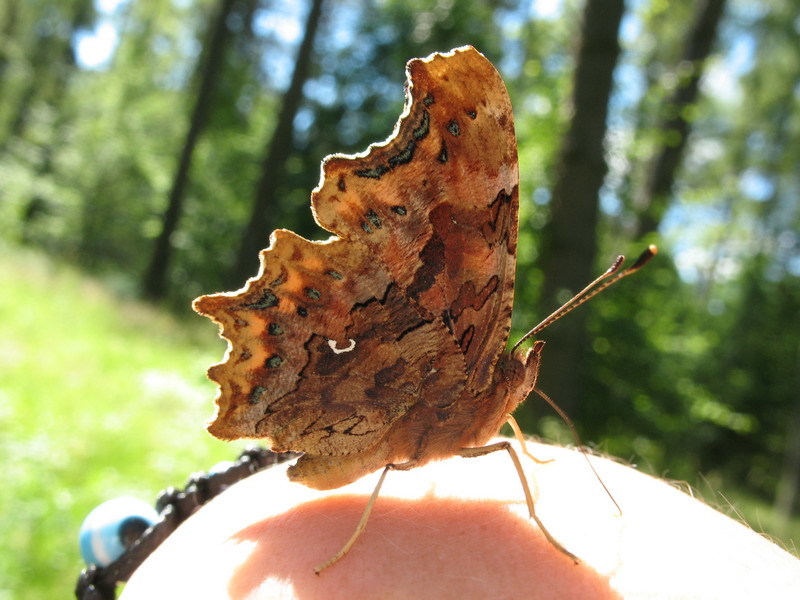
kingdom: Animalia
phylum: Arthropoda
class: Insecta
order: Lepidoptera
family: Nymphalidae
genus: Polygonia
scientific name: Polygonia c-album
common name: Comma
